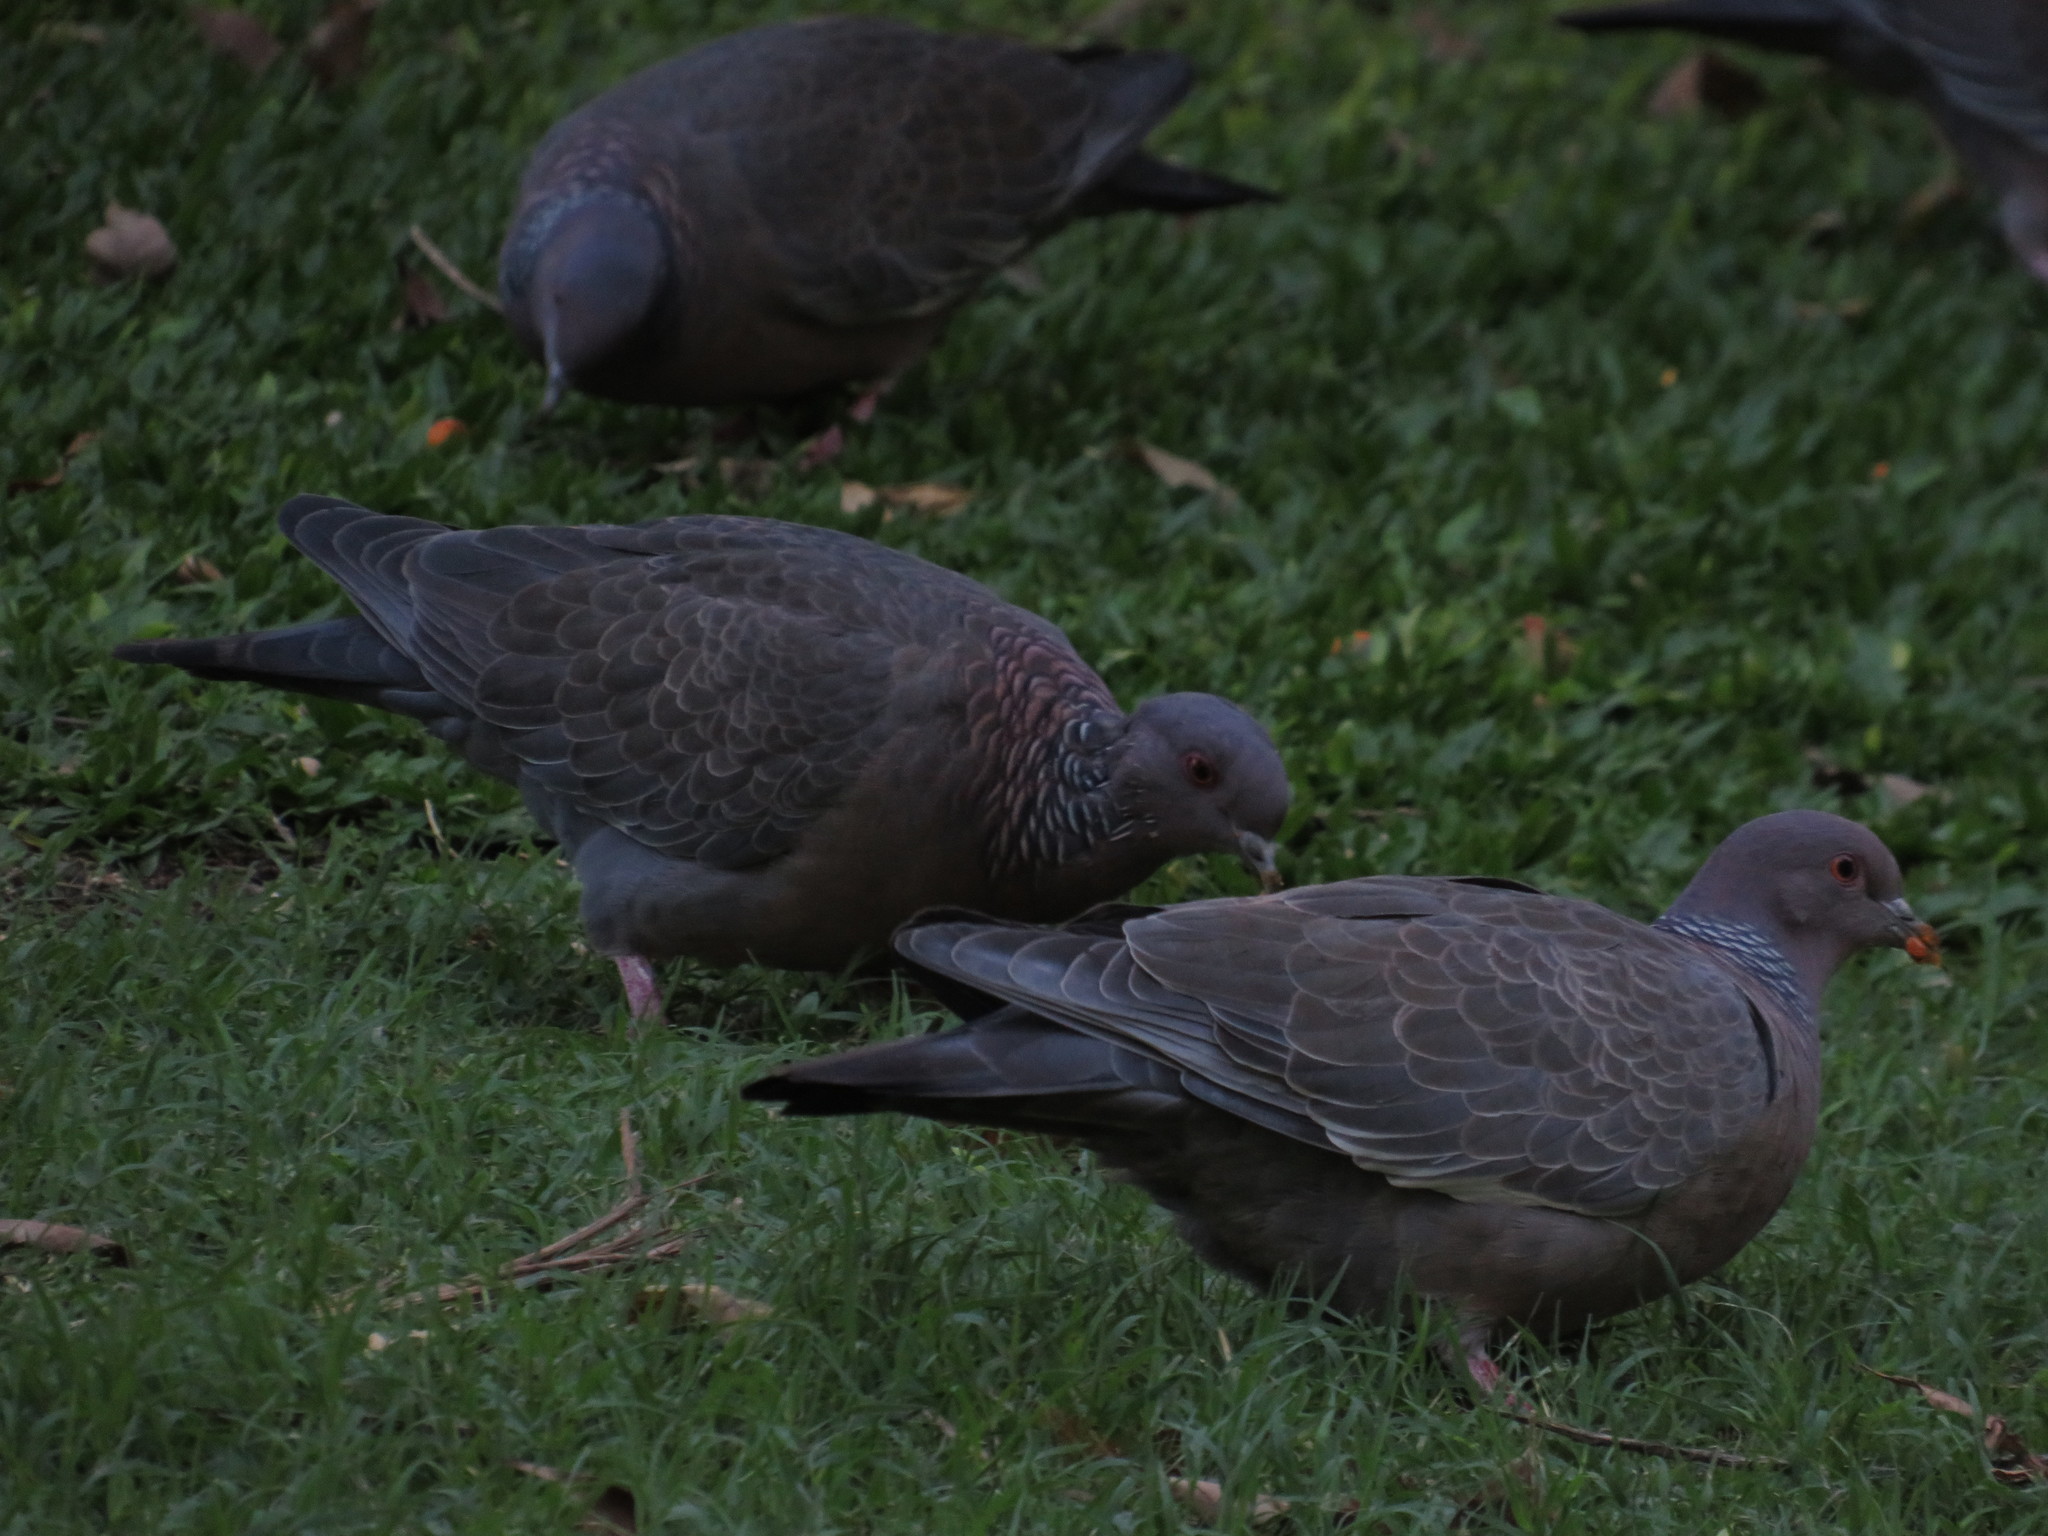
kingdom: Animalia
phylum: Chordata
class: Aves
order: Columbiformes
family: Columbidae
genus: Patagioenas
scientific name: Patagioenas picazuro
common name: Picazuro pigeon
